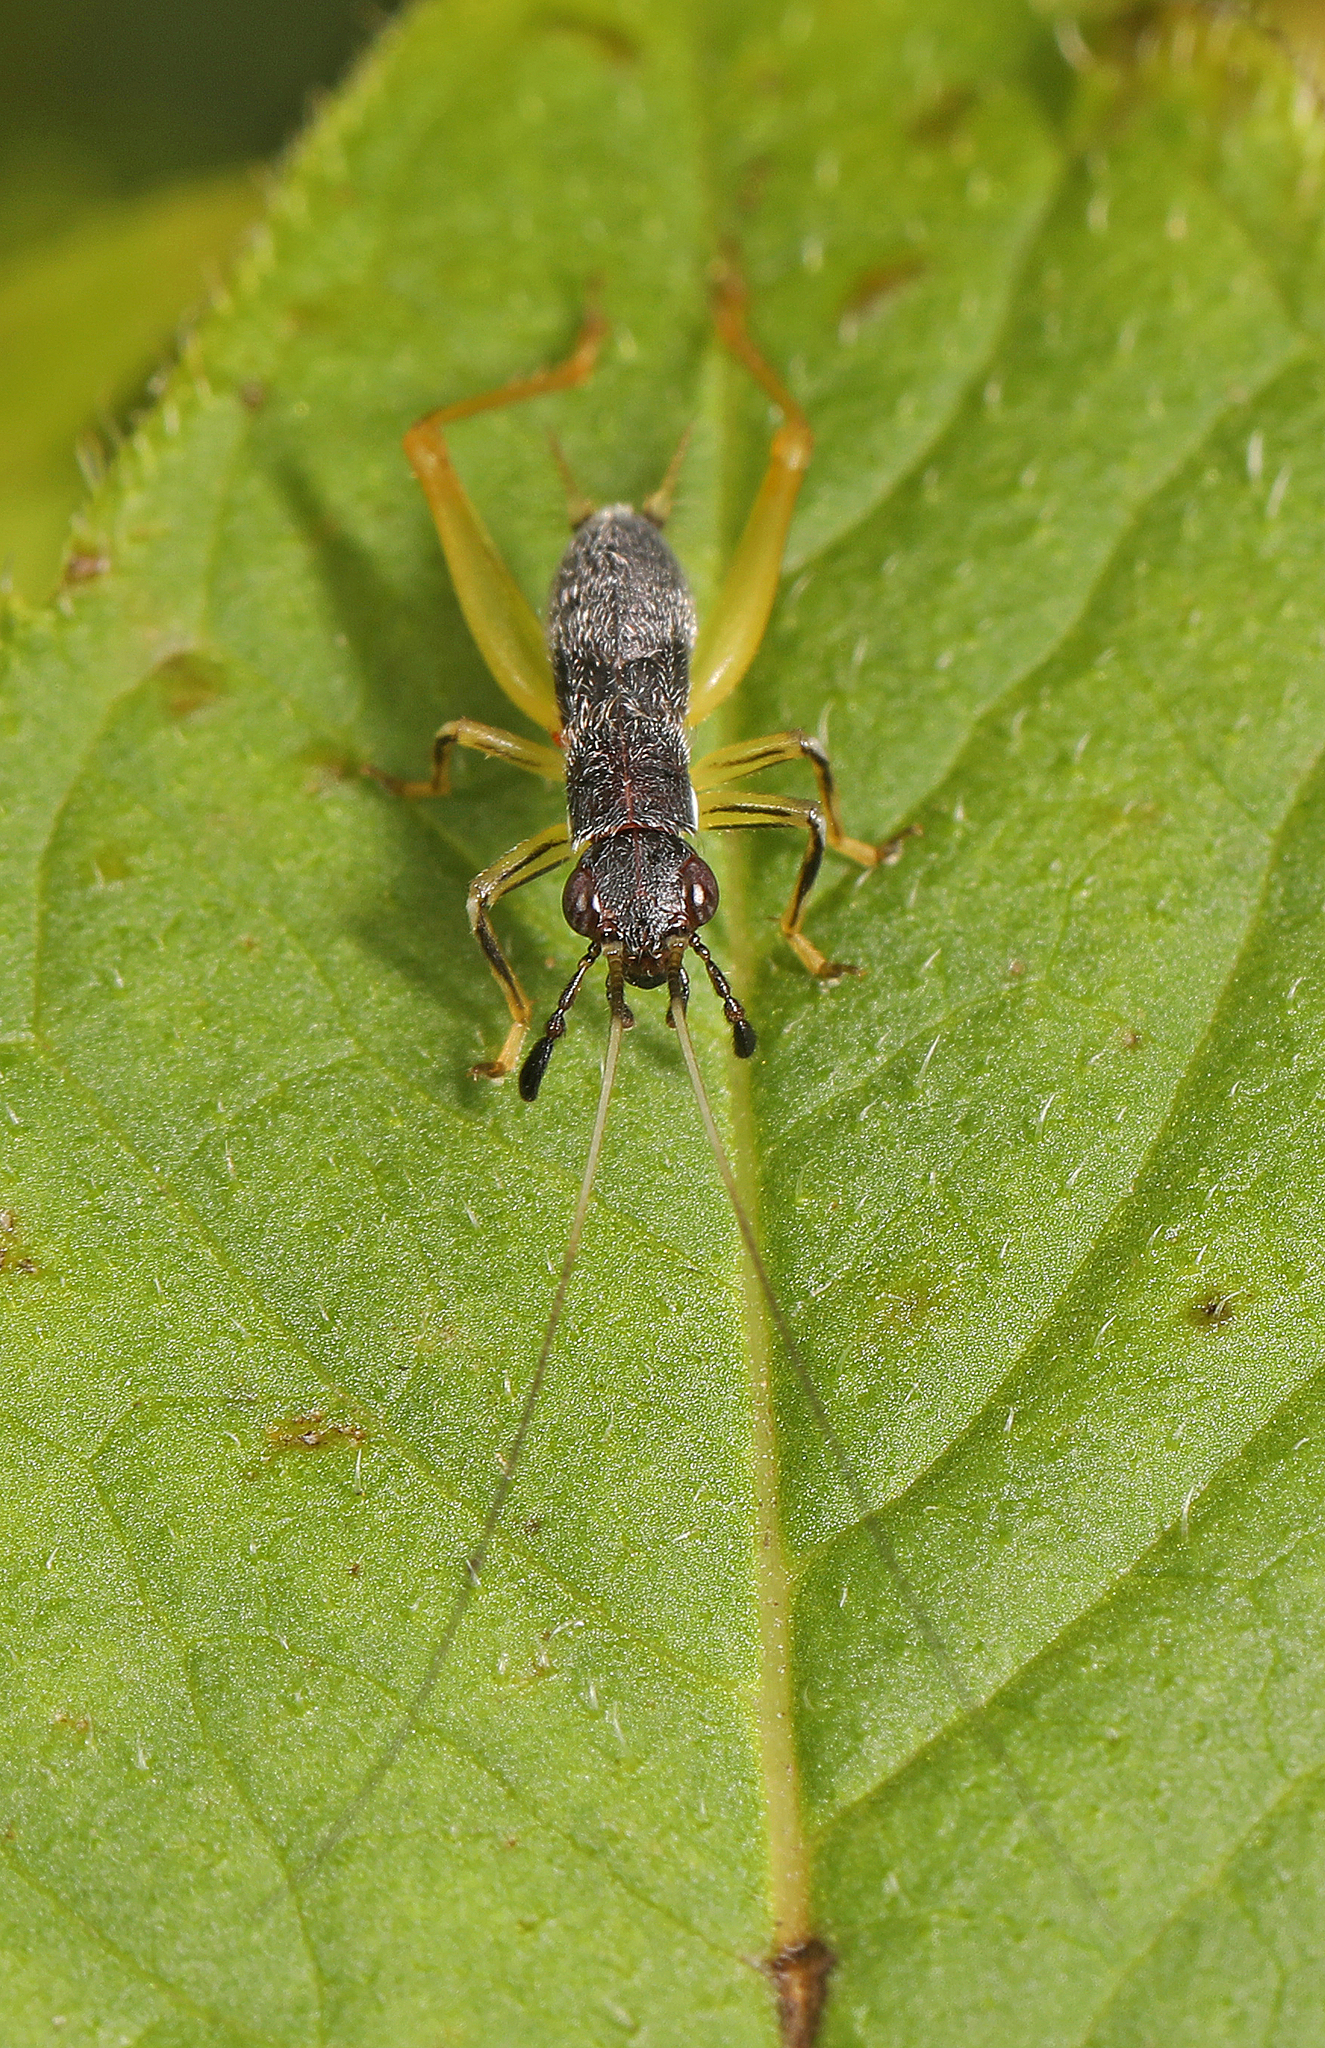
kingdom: Animalia
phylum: Arthropoda
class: Insecta
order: Orthoptera
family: Trigonidiidae
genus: Phyllopalpus
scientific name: Phyllopalpus pulchellus
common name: Handsome trig
